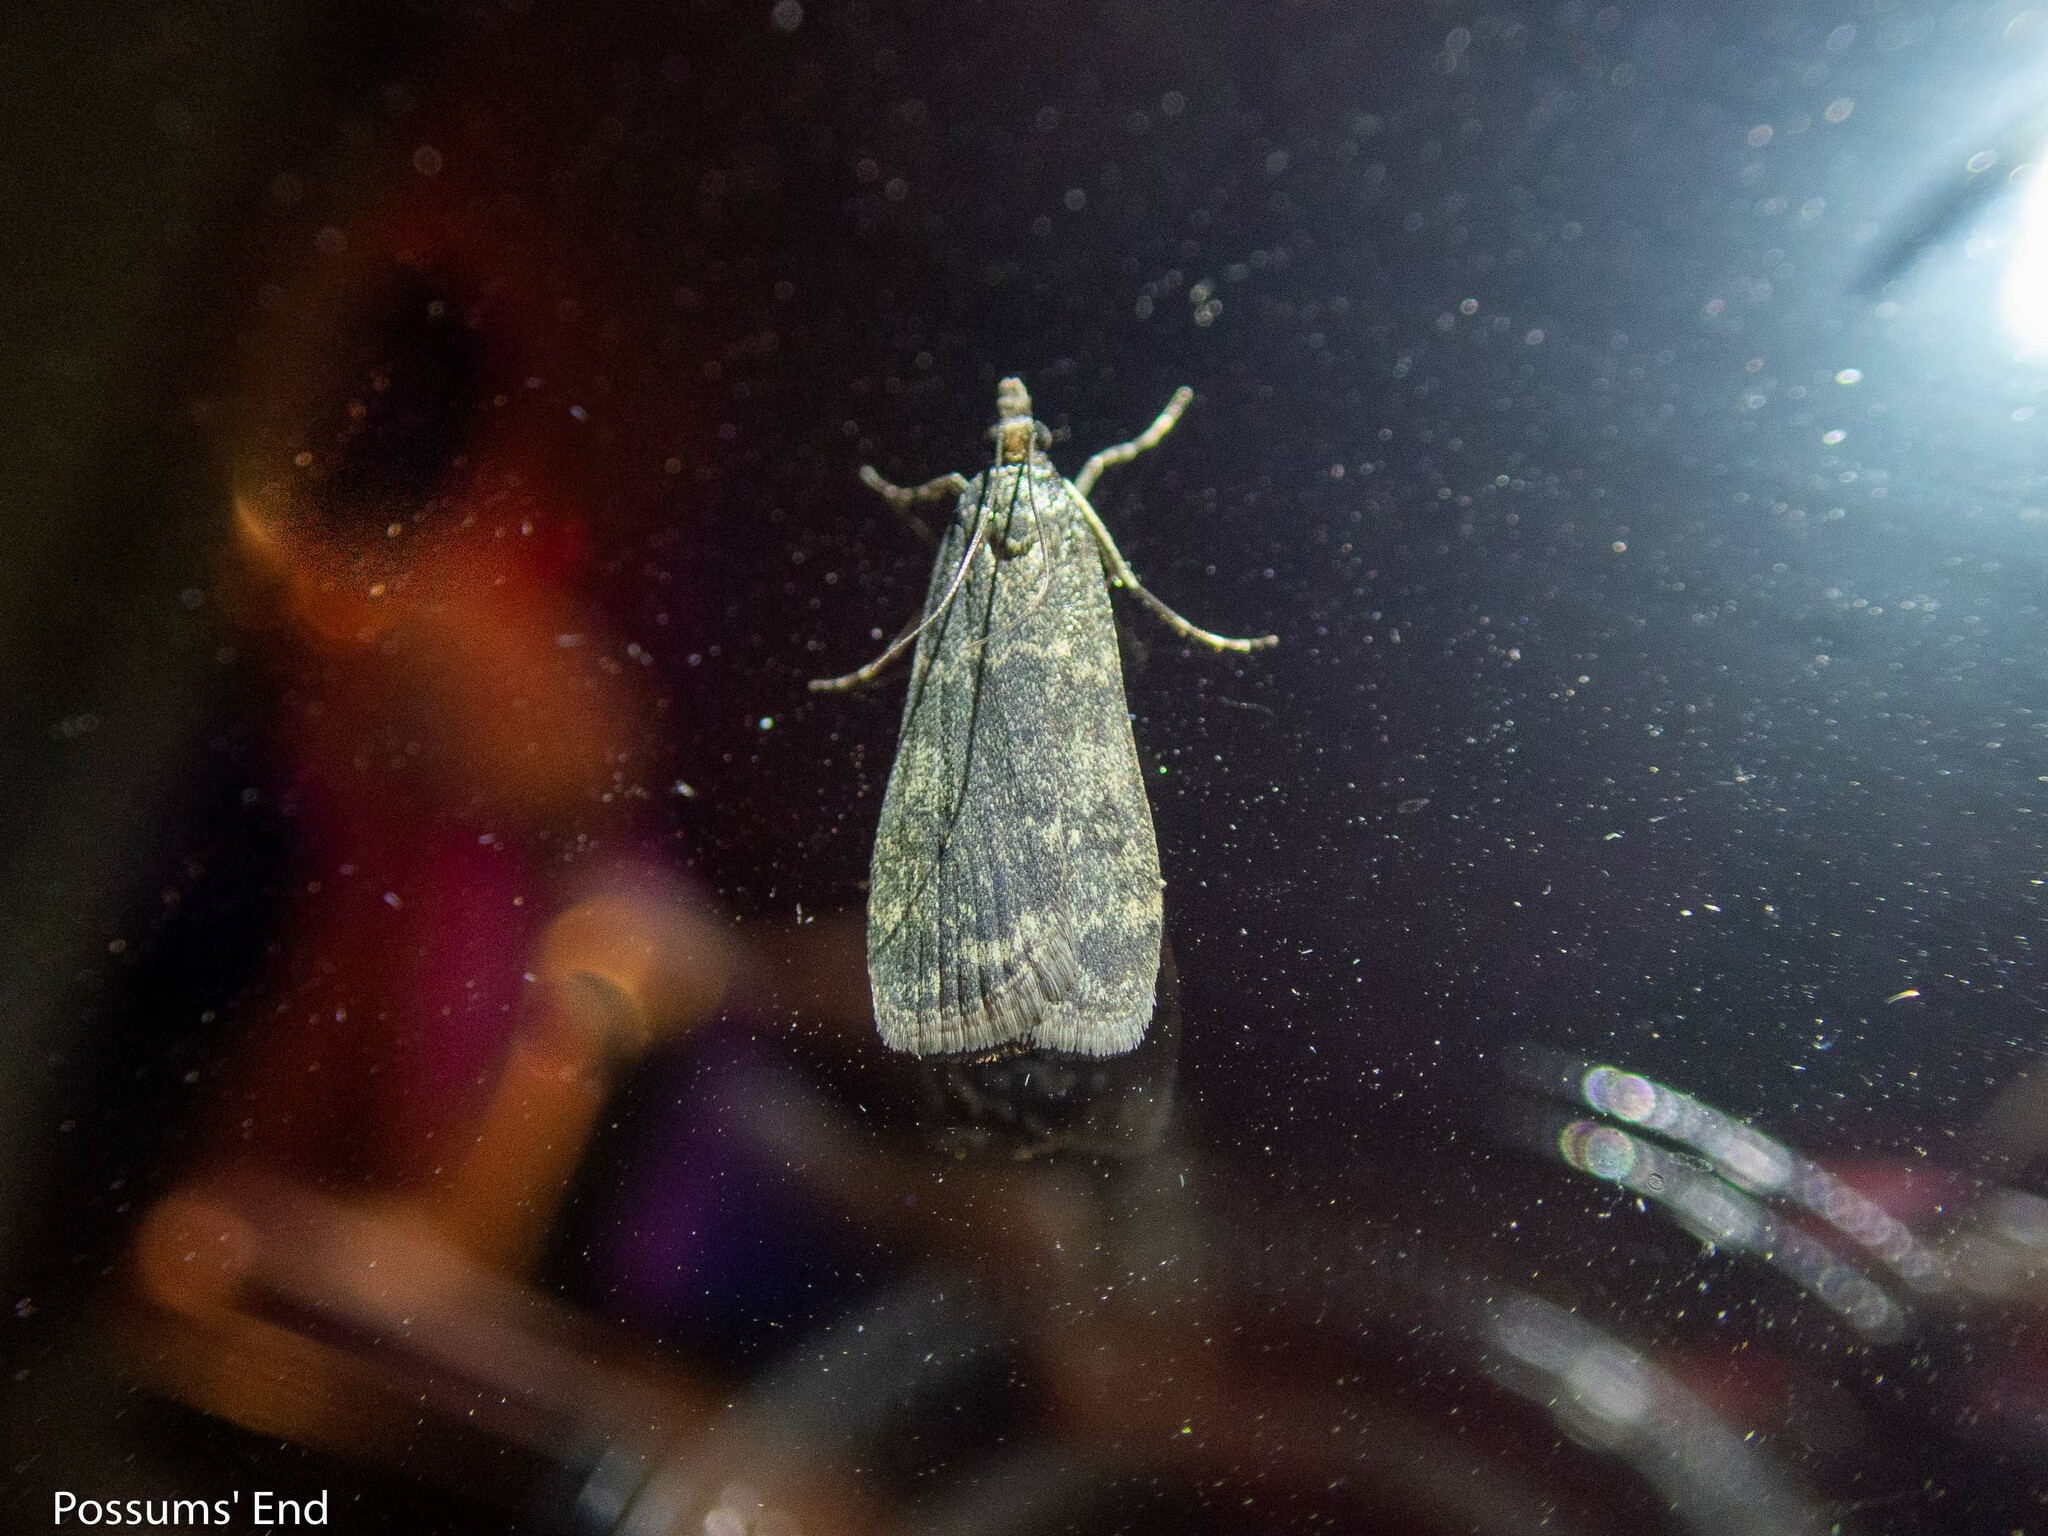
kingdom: Animalia
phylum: Arthropoda
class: Insecta
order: Lepidoptera
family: Crambidae
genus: Eudonia
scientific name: Eudonia cataxesta
